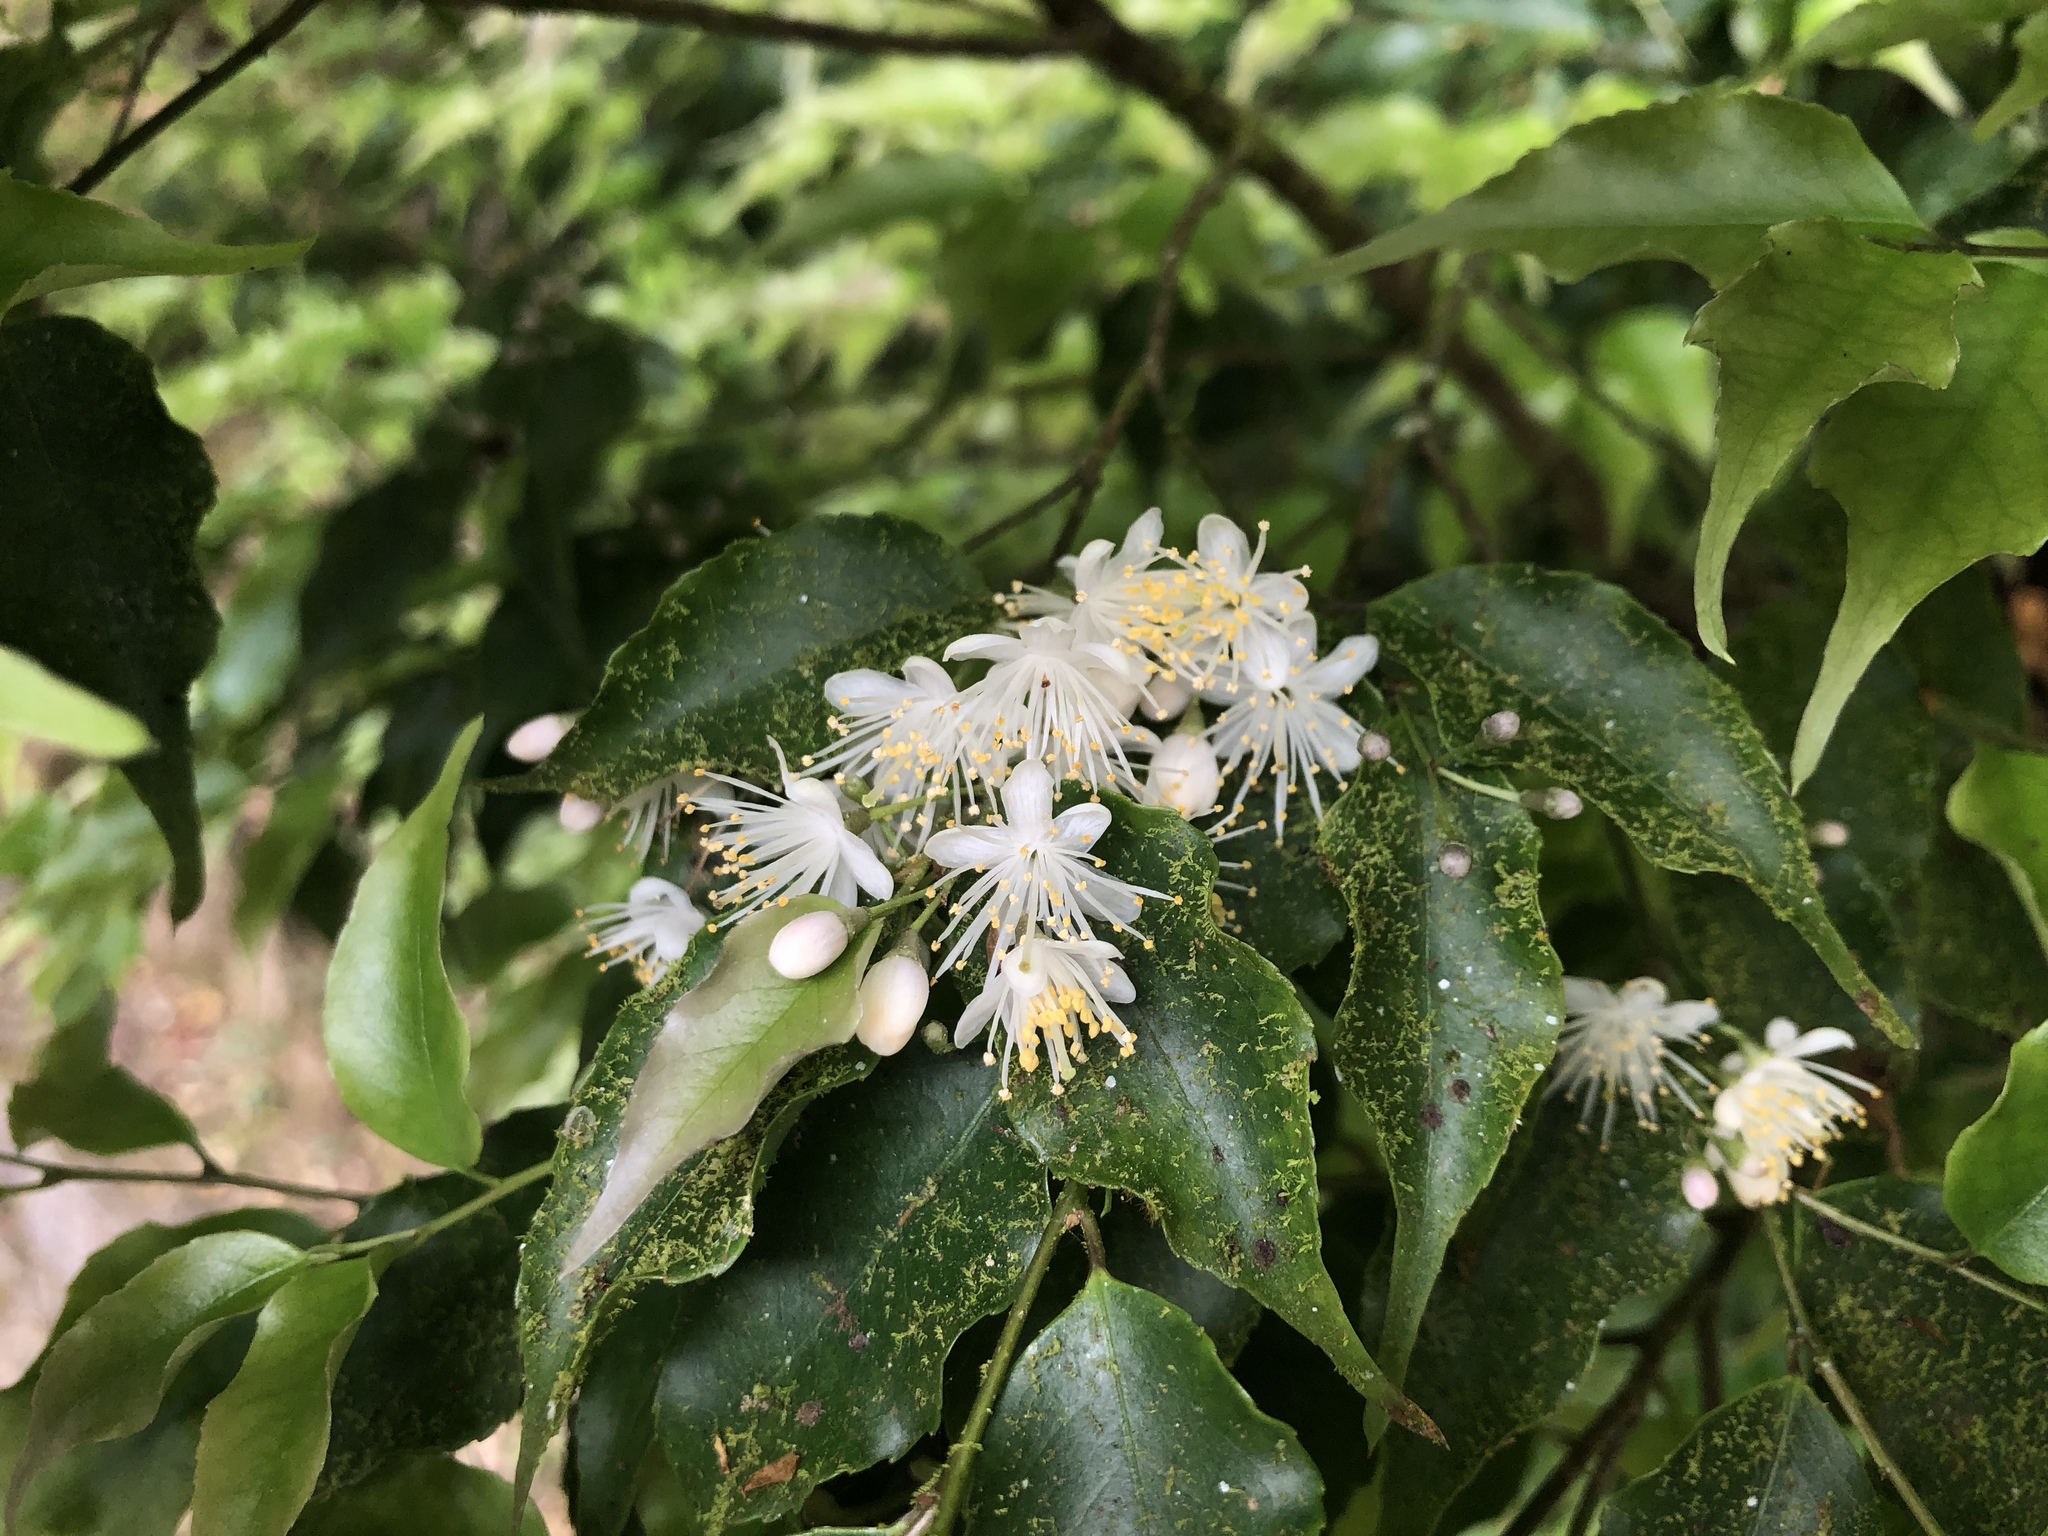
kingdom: Plantae
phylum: Tracheophyta
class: Magnoliopsida
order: Ericales
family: Symplocaceae
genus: Symplocos
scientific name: Symplocos sumuntia
